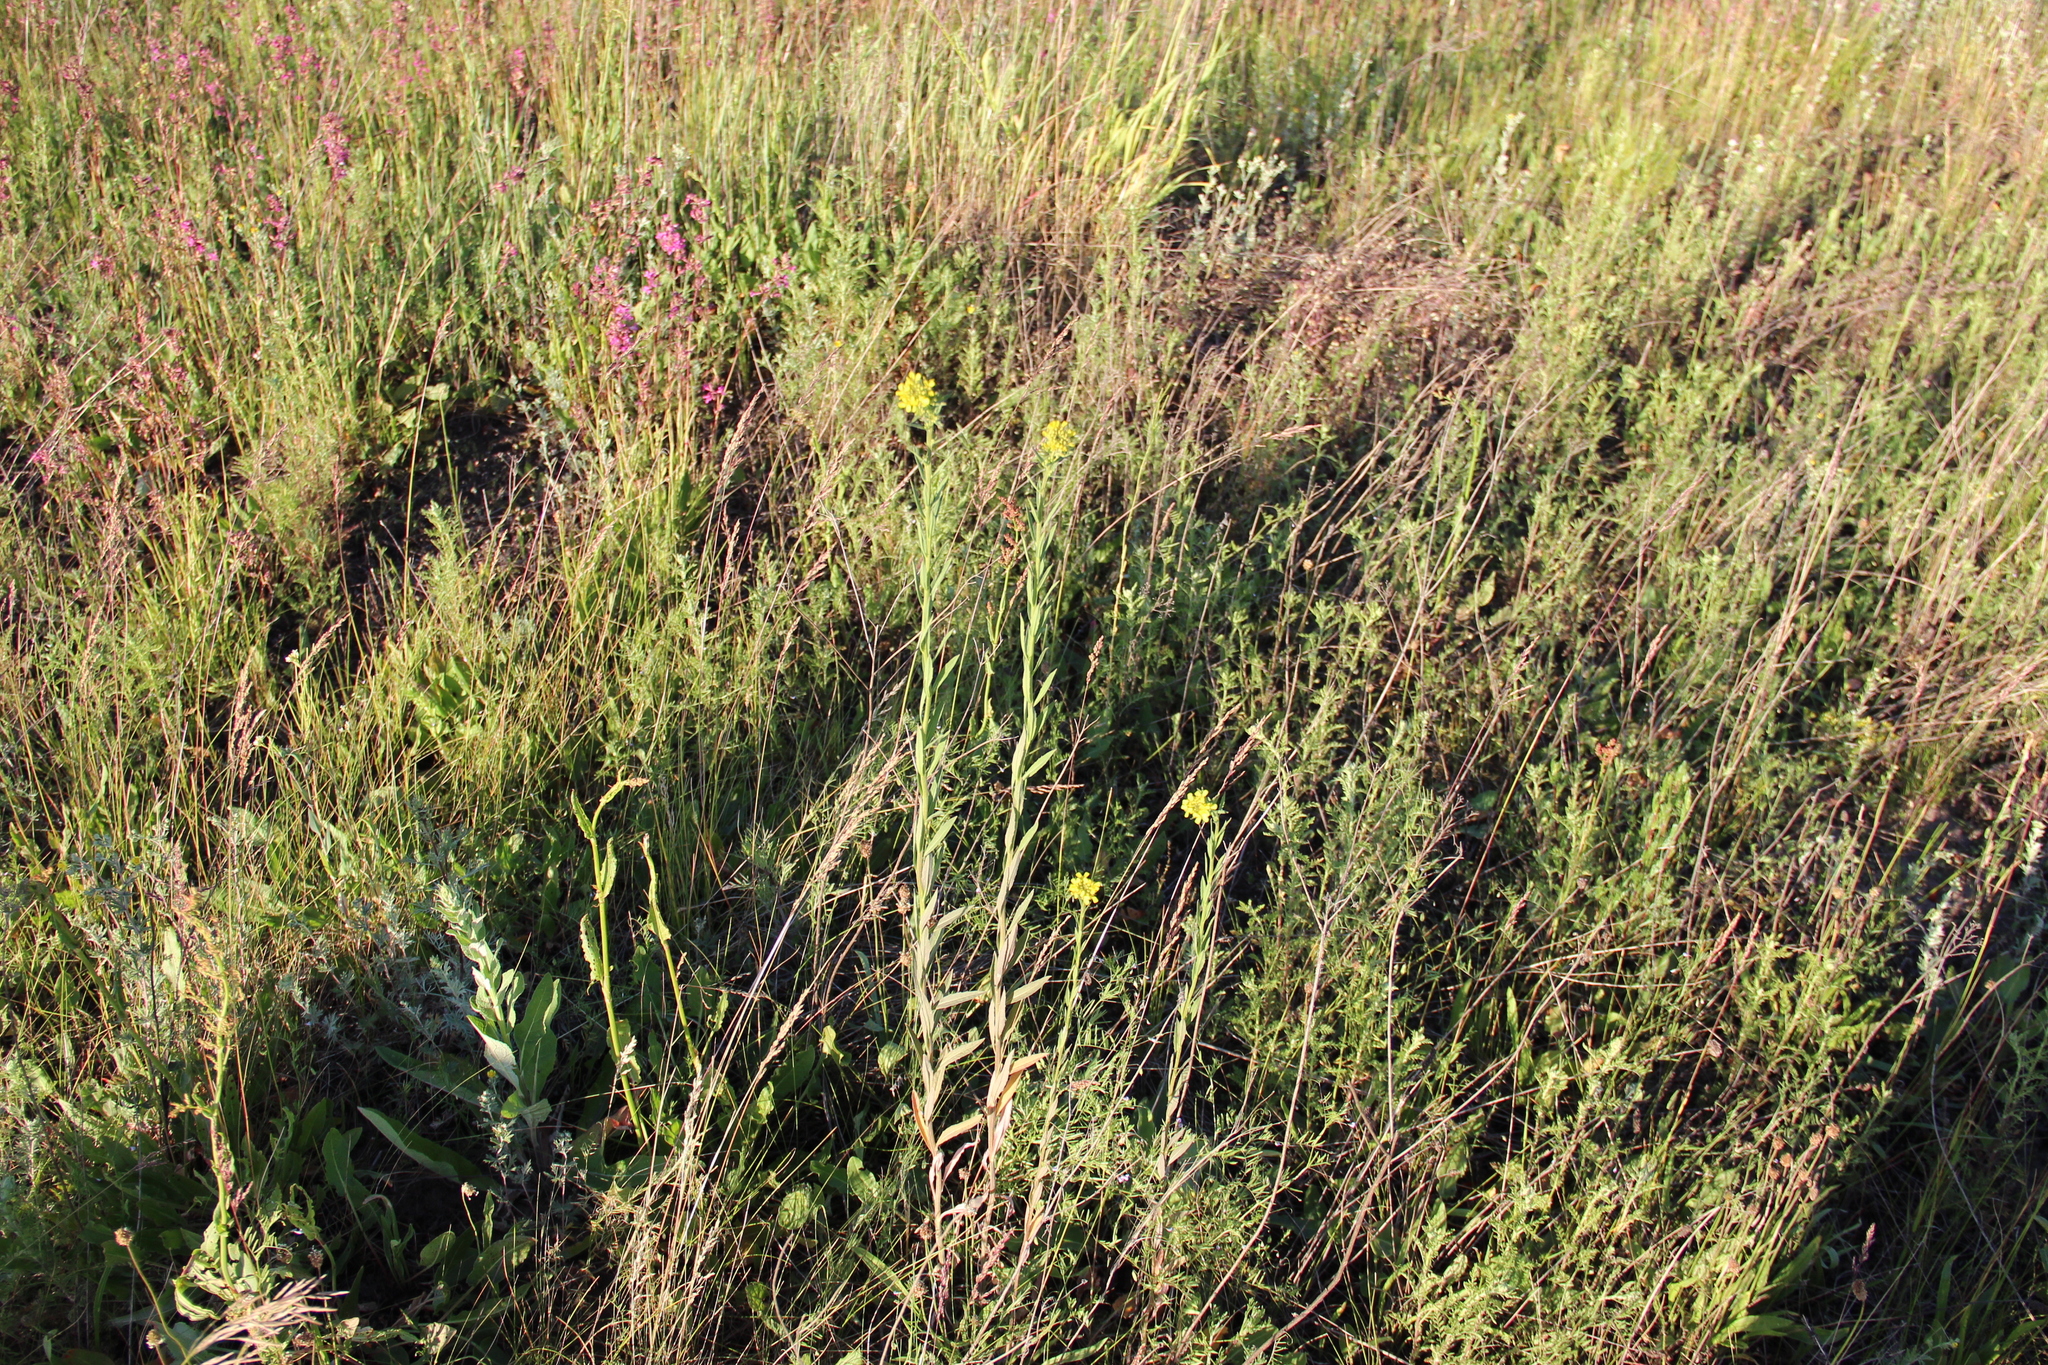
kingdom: Plantae
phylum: Tracheophyta
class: Magnoliopsida
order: Brassicales
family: Brassicaceae
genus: Erysimum
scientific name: Erysimum hieraciifolium
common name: European wallflower
